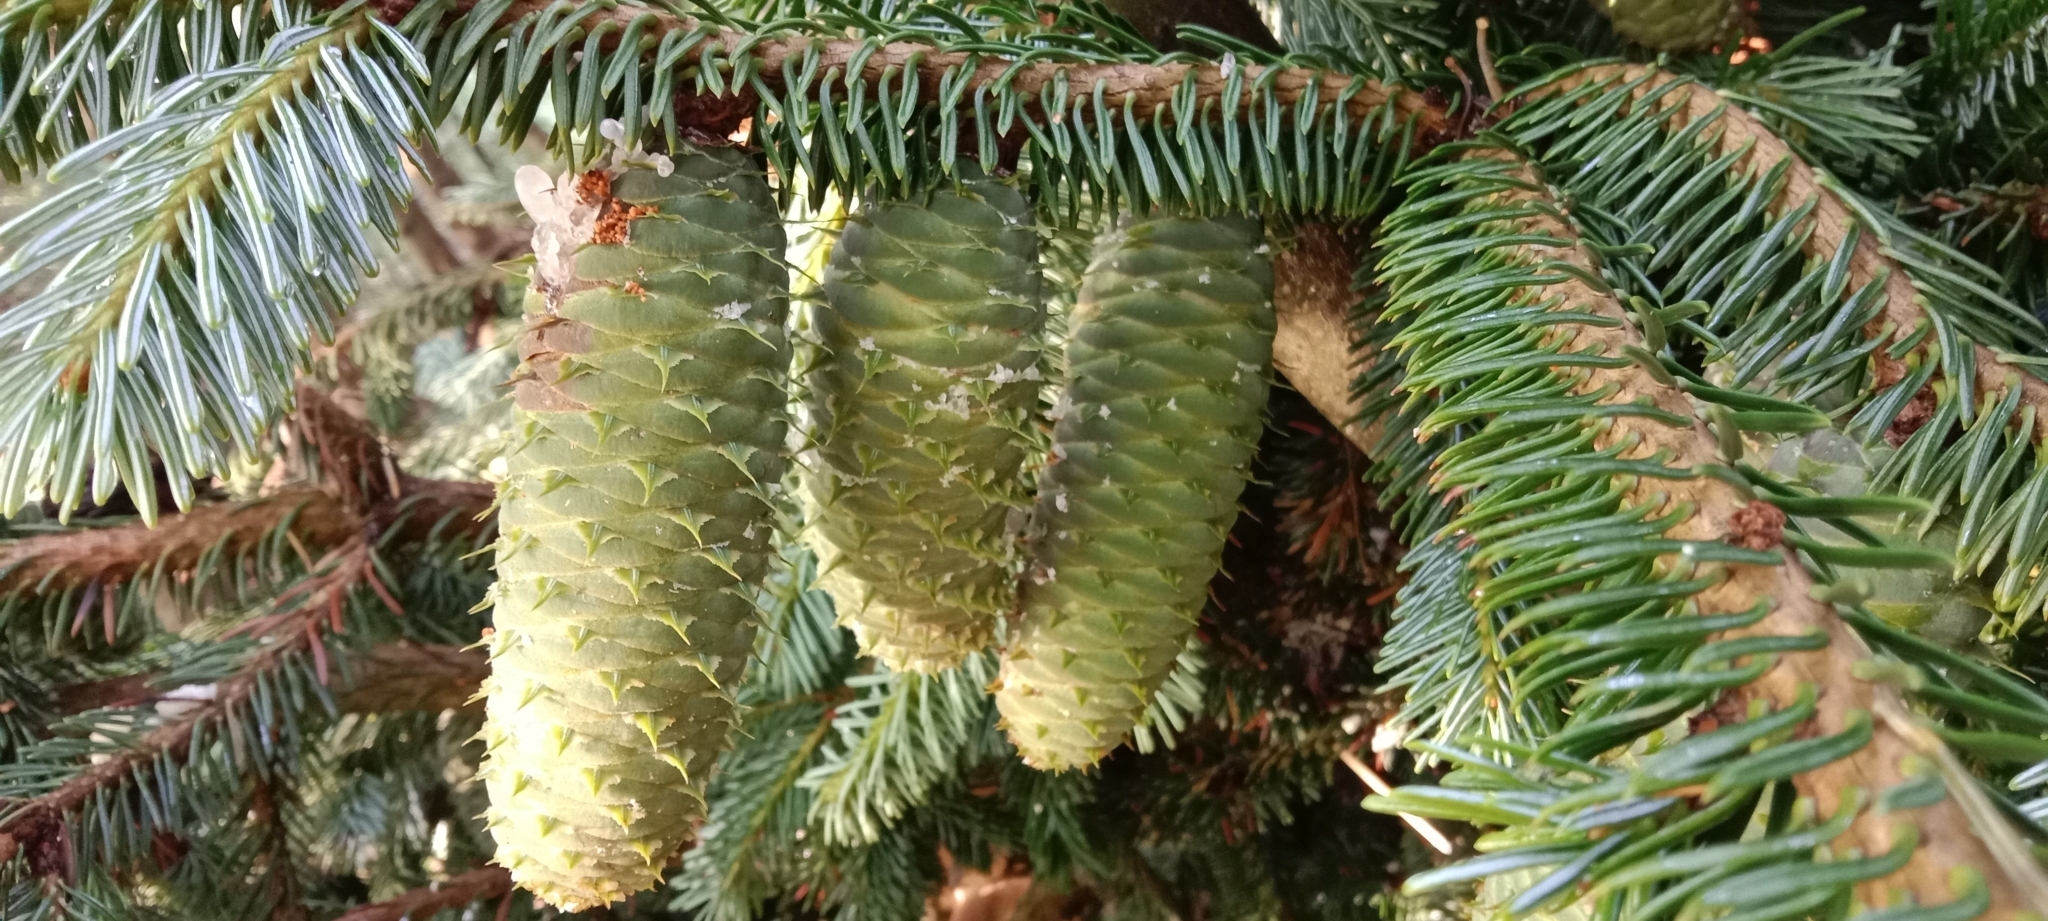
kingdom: Plantae
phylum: Tracheophyta
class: Pinopsida
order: Pinales
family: Pinaceae
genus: Picea
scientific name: Picea abies
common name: Norway spruce
